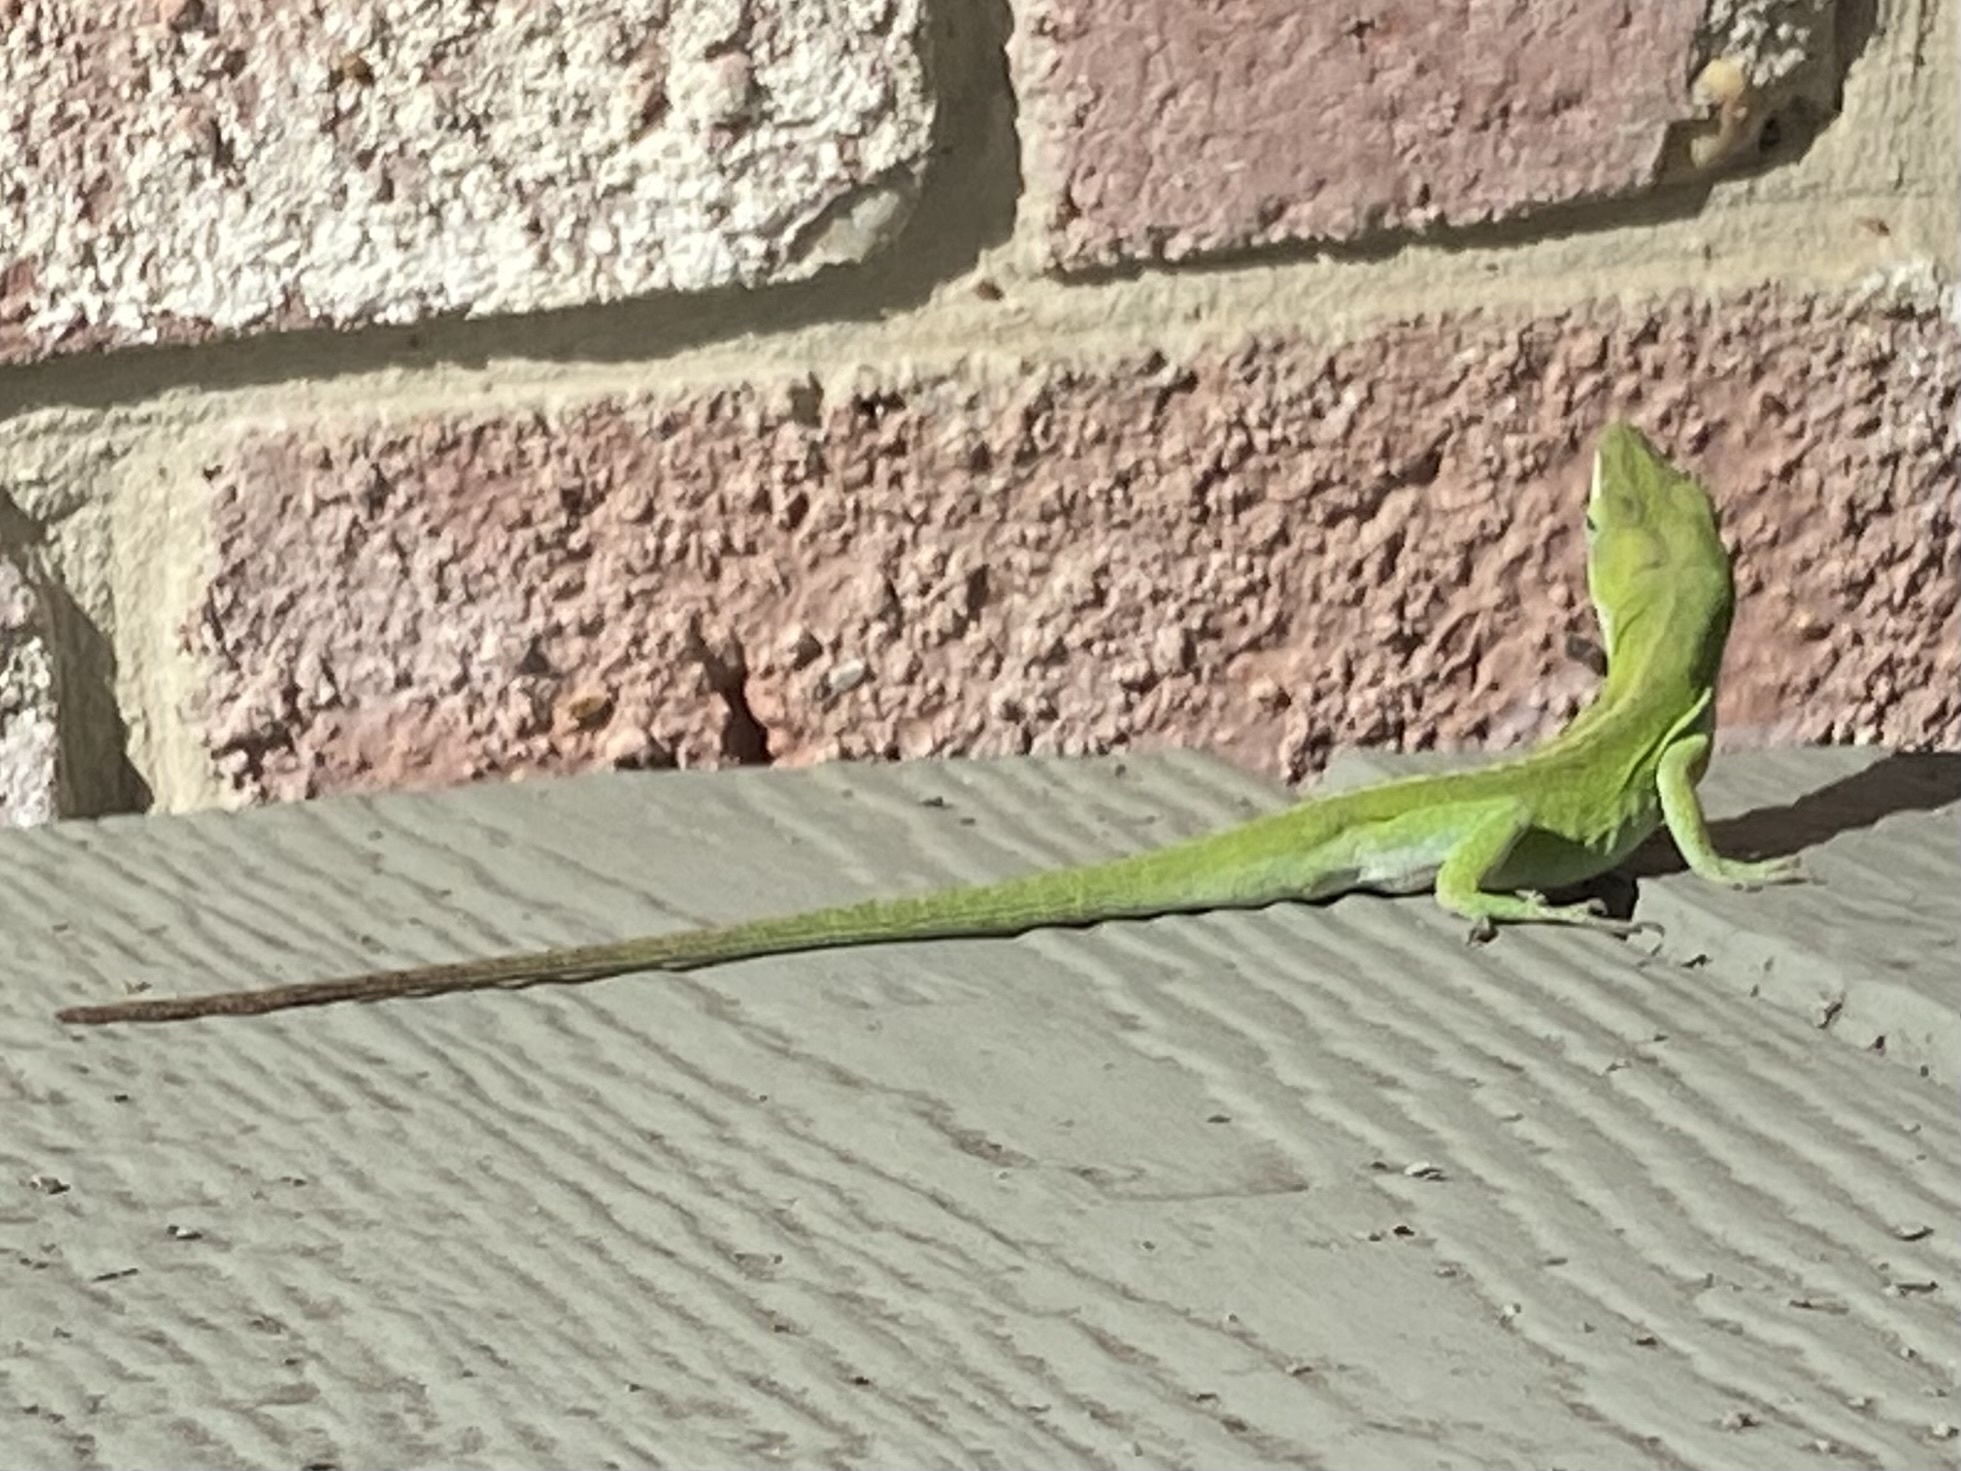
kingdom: Animalia
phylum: Chordata
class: Squamata
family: Dactyloidae
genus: Anolis
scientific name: Anolis carolinensis
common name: Green anole
